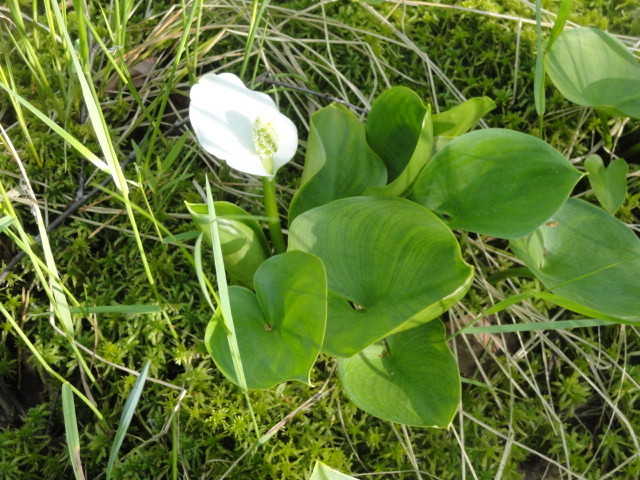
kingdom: Plantae
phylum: Tracheophyta
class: Liliopsida
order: Alismatales
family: Araceae
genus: Calla
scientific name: Calla palustris
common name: Bog arum
